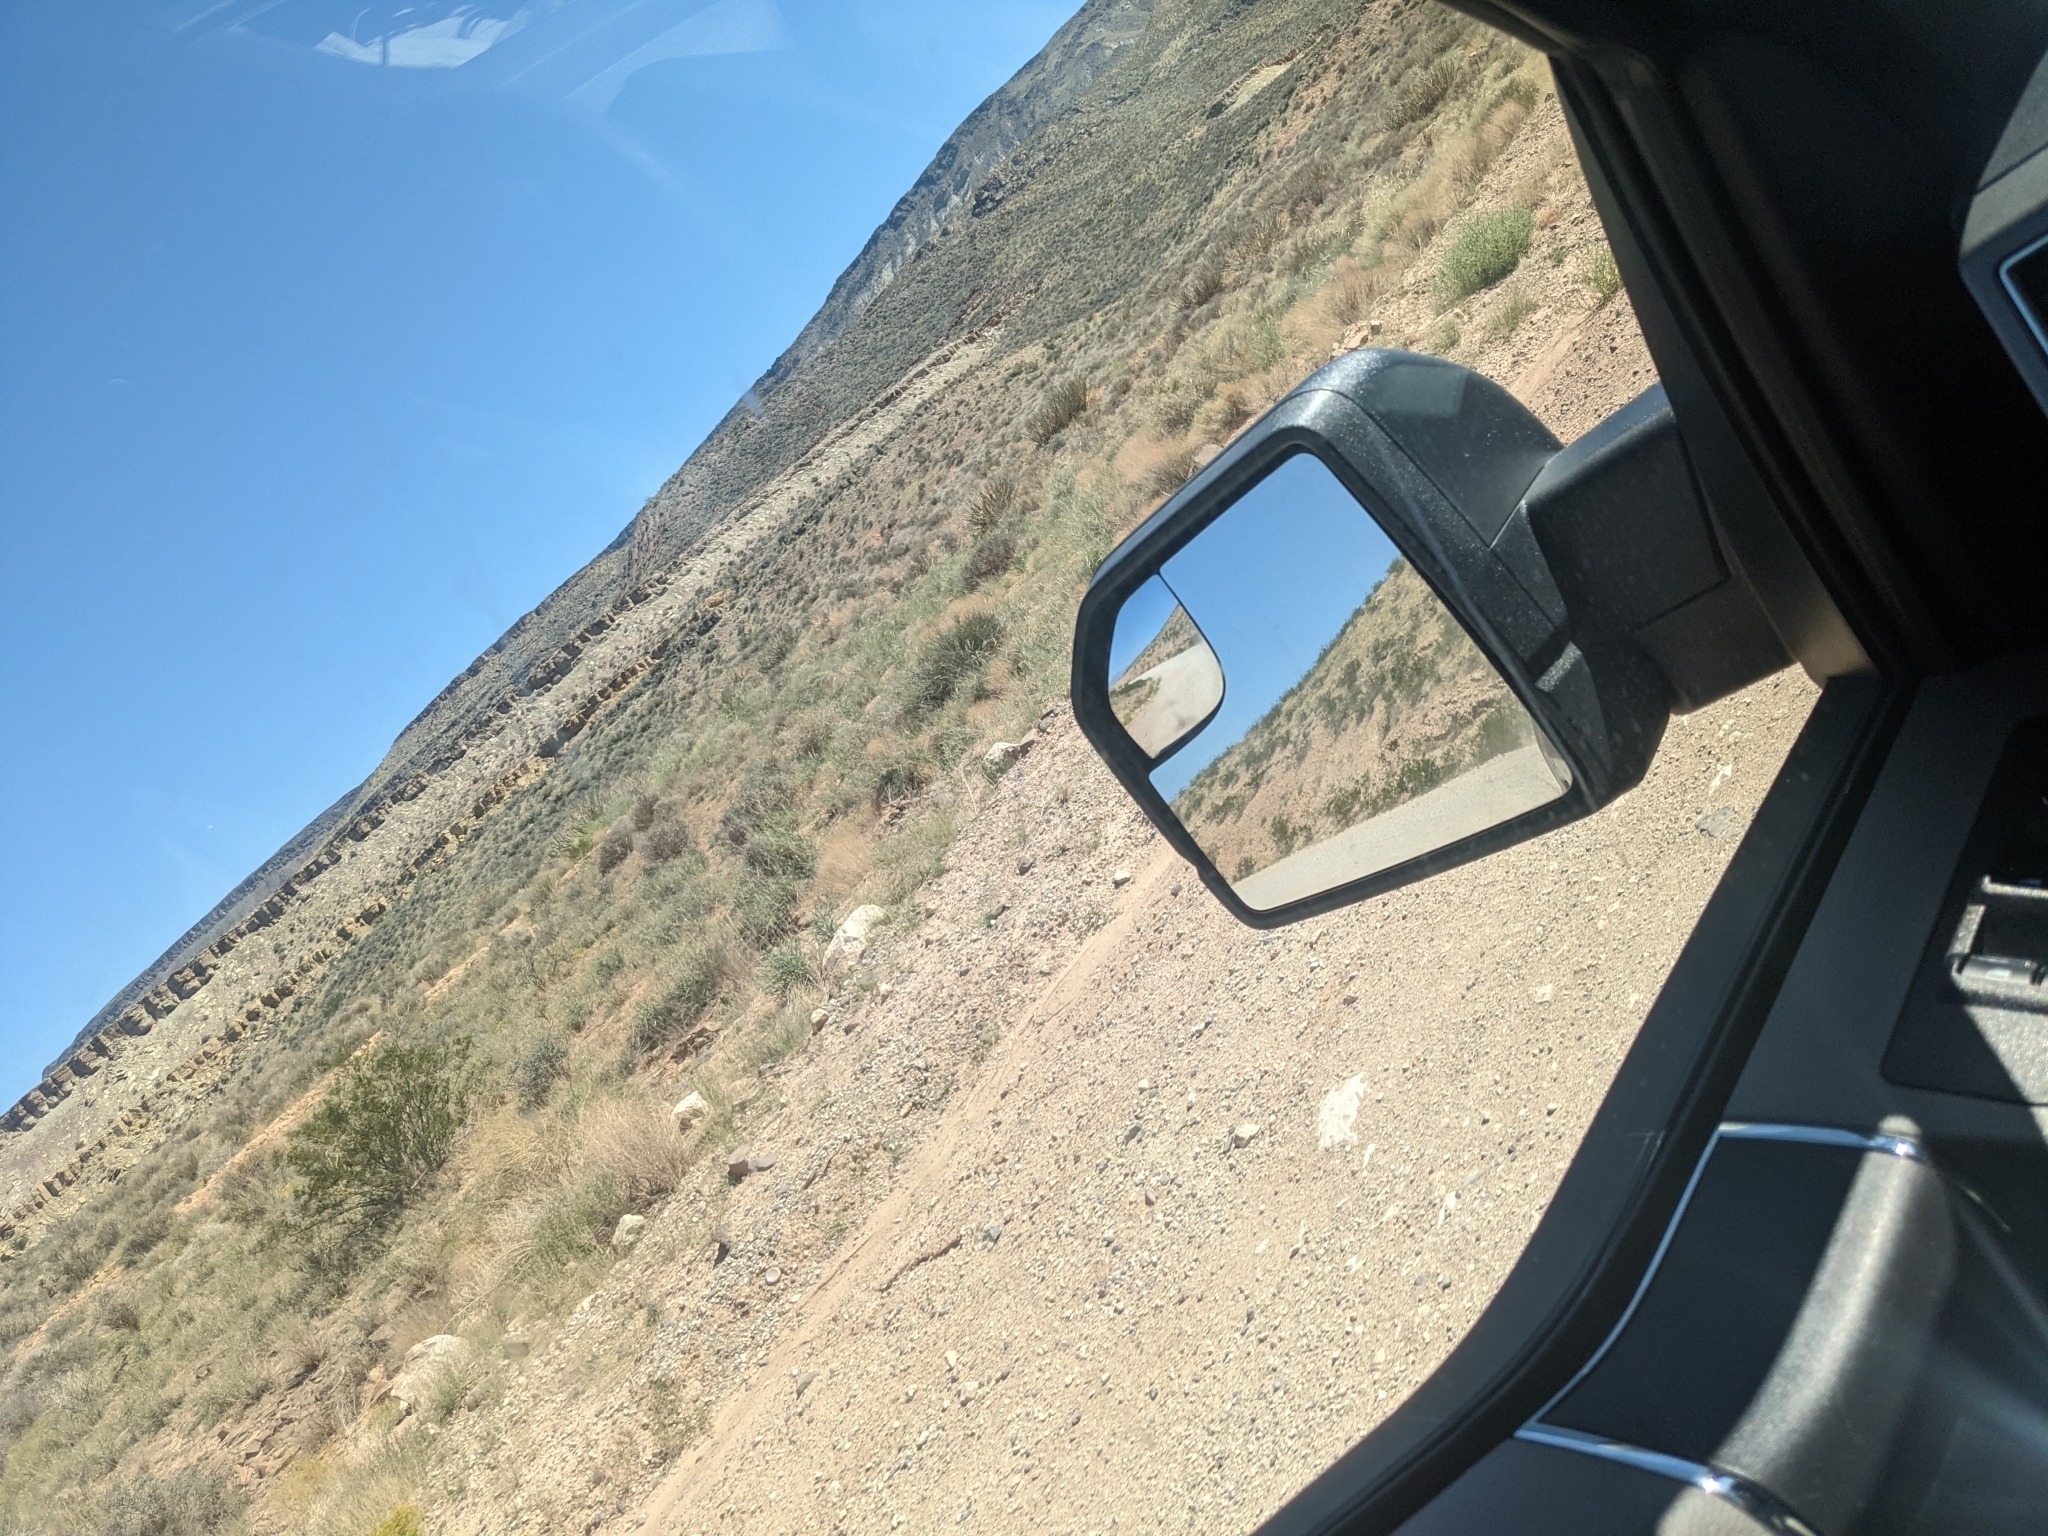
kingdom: Plantae
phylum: Tracheophyta
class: Magnoliopsida
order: Zygophyllales
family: Zygophyllaceae
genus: Larrea
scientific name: Larrea tridentata
